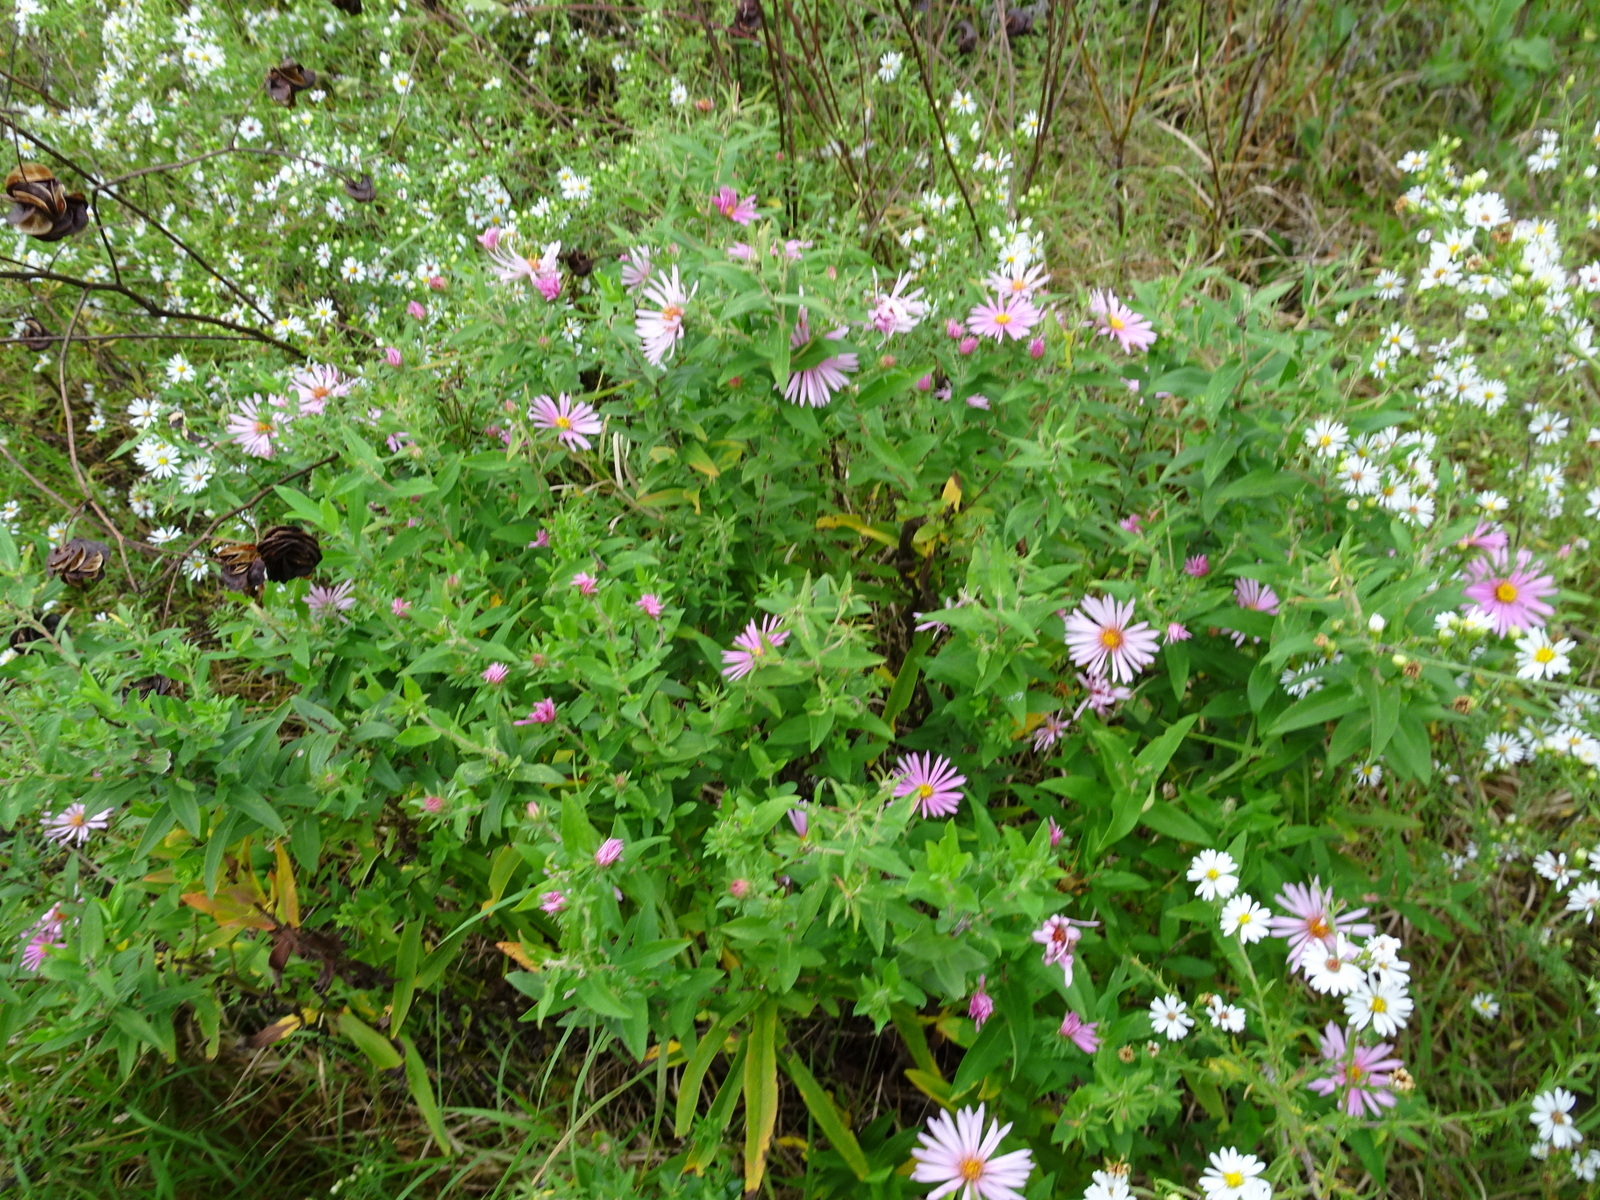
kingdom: Plantae
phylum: Tracheophyta
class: Magnoliopsida
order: Asterales
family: Asteraceae
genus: Symphyotrichum
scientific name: Symphyotrichum novae-angliae
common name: Michaelmas daisy
